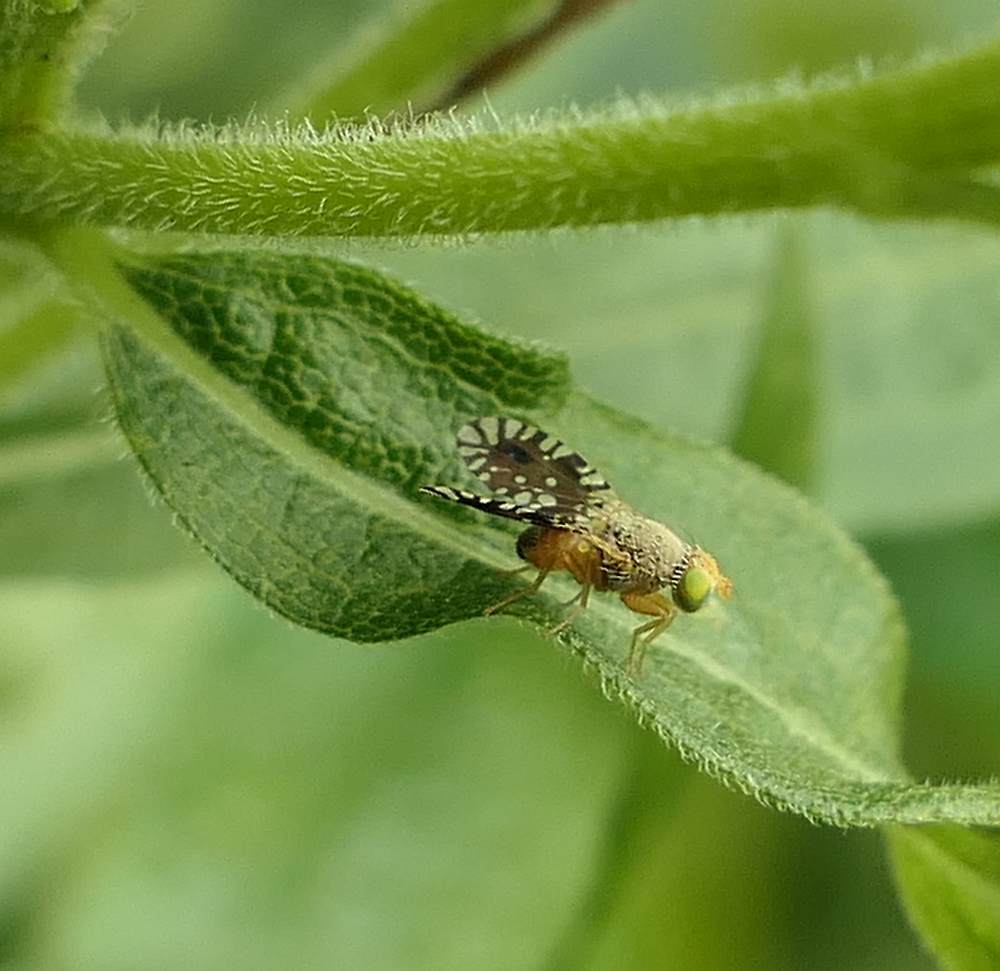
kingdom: Animalia
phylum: Arthropoda
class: Insecta
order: Diptera
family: Tephritidae
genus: Euaresta
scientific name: Euaresta bella
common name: Common ragweed fruit fly
